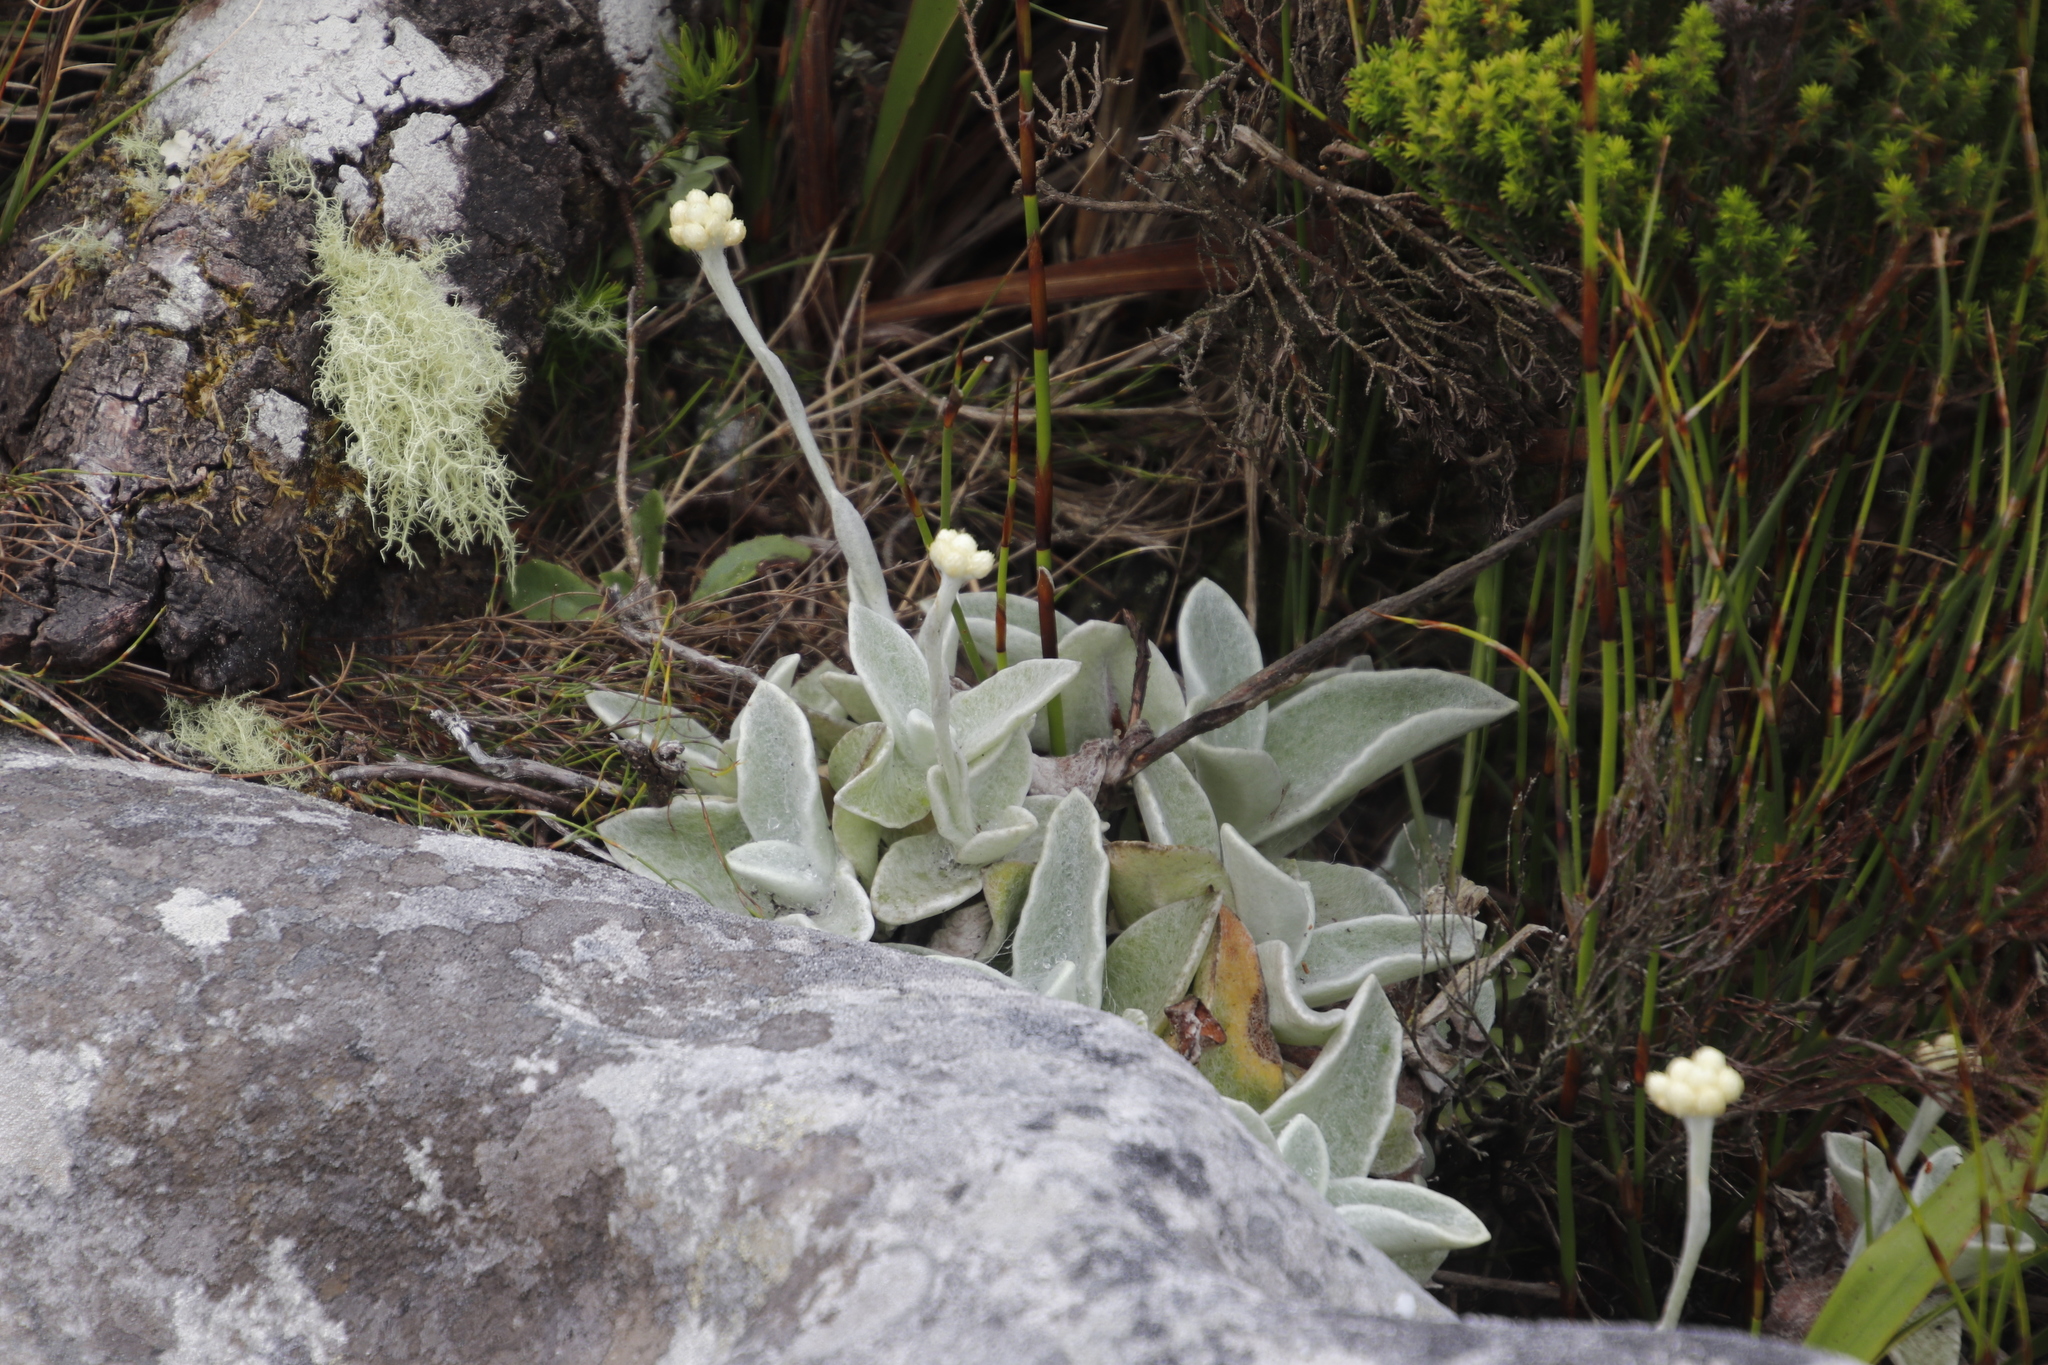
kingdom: Plantae
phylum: Tracheophyta
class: Magnoliopsida
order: Asterales
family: Asteraceae
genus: Helichrysum
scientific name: Helichrysum grandiflorum
